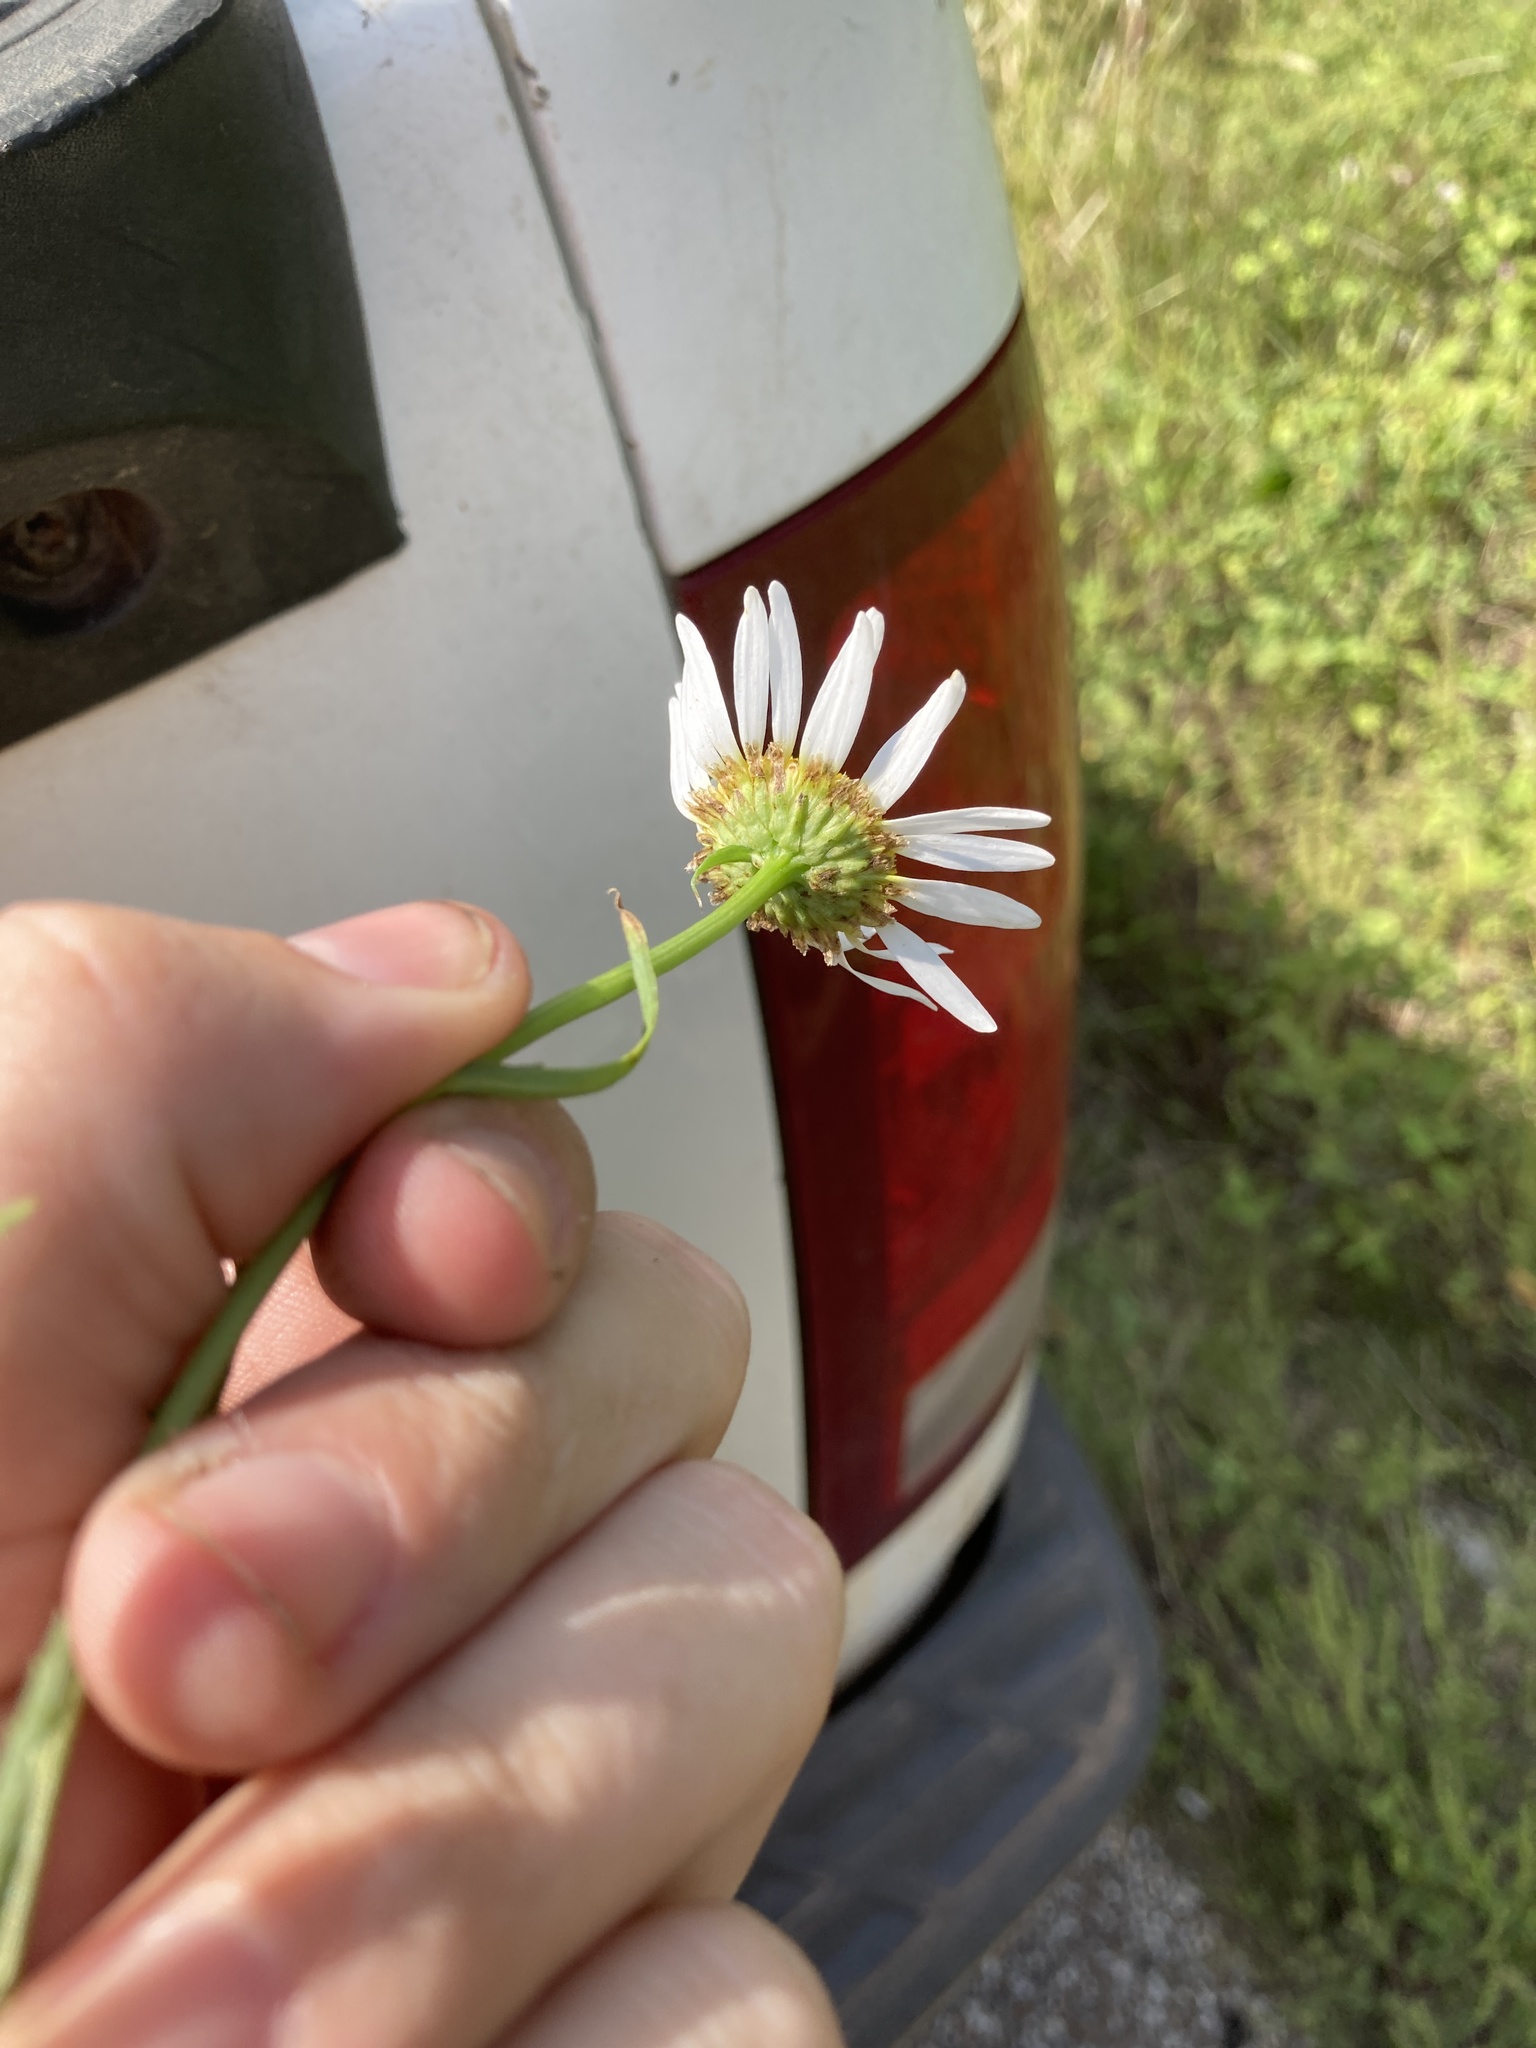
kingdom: Plantae
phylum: Tracheophyta
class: Magnoliopsida
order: Asterales
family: Asteraceae
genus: Leucanthemum
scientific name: Leucanthemum vulgare
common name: Oxeye daisy
